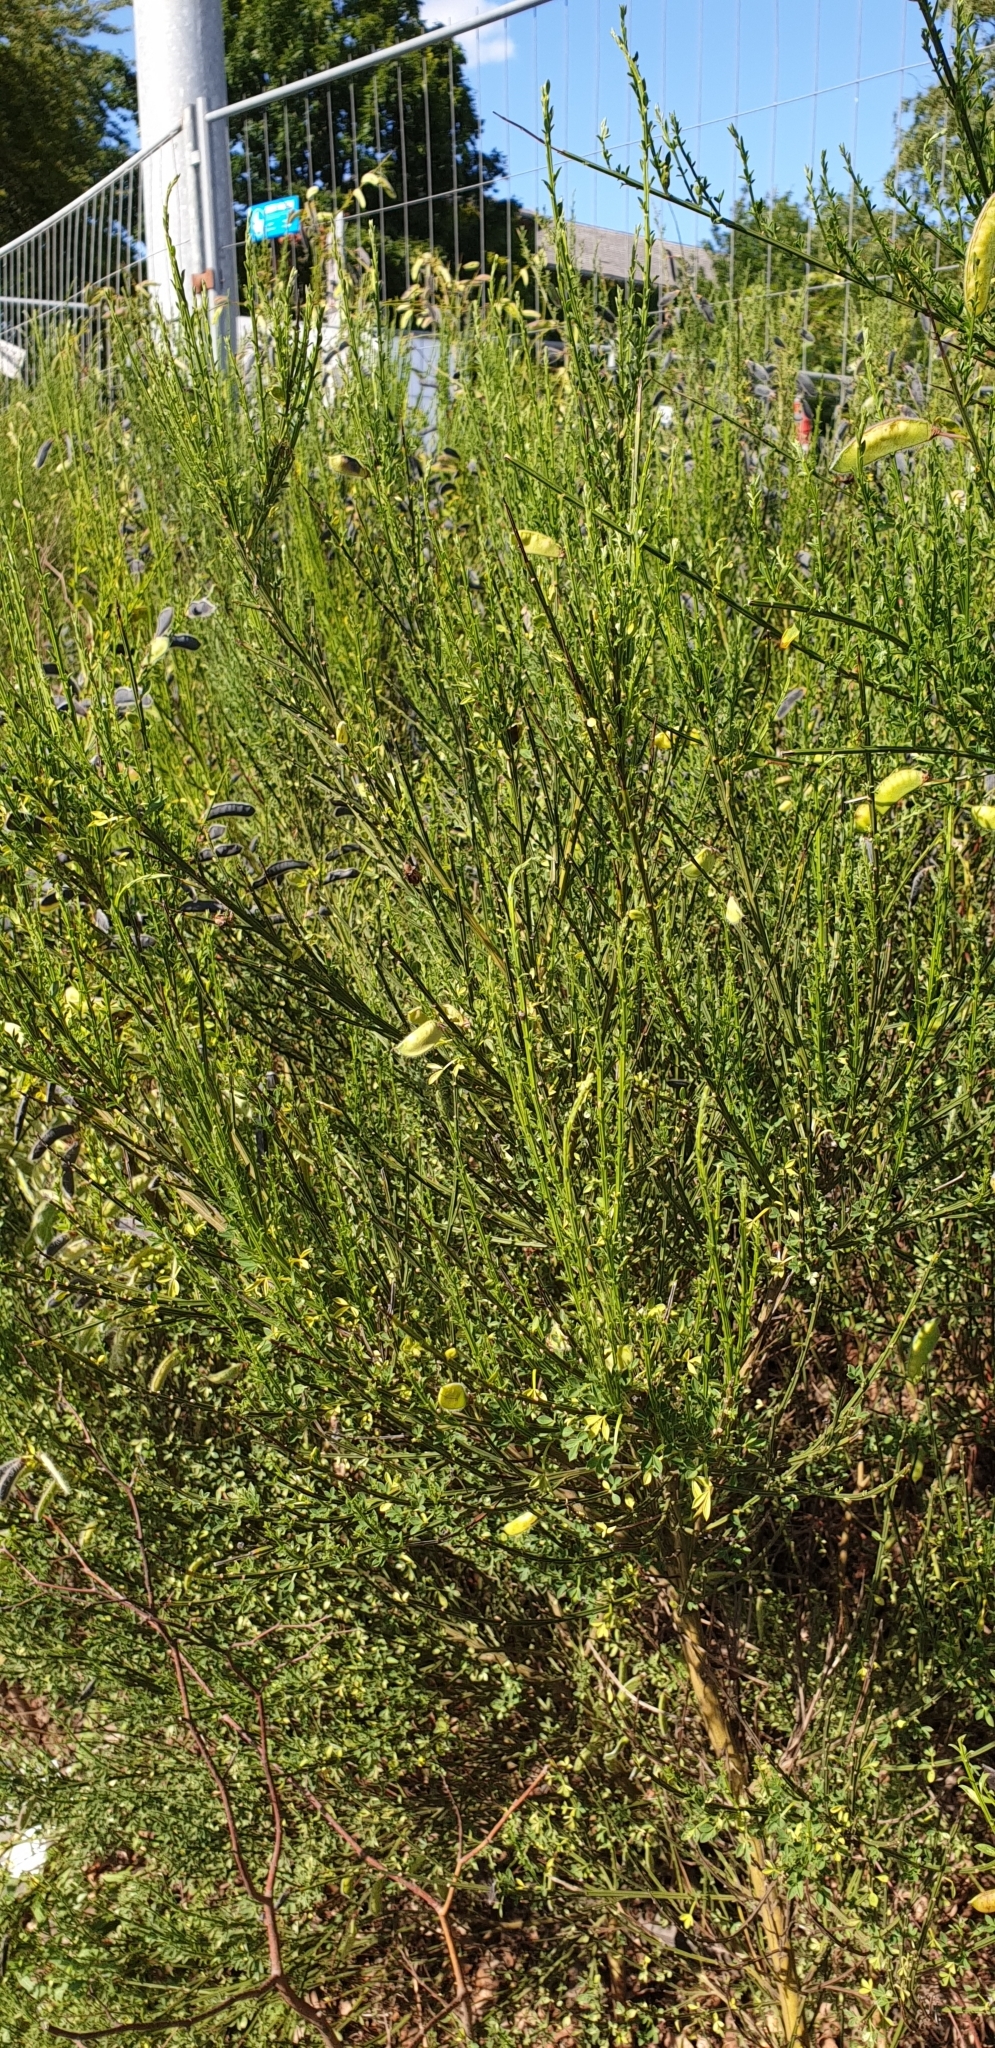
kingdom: Plantae
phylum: Tracheophyta
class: Magnoliopsida
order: Fabales
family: Fabaceae
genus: Cytisus
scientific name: Cytisus scoparius
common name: Scotch broom
